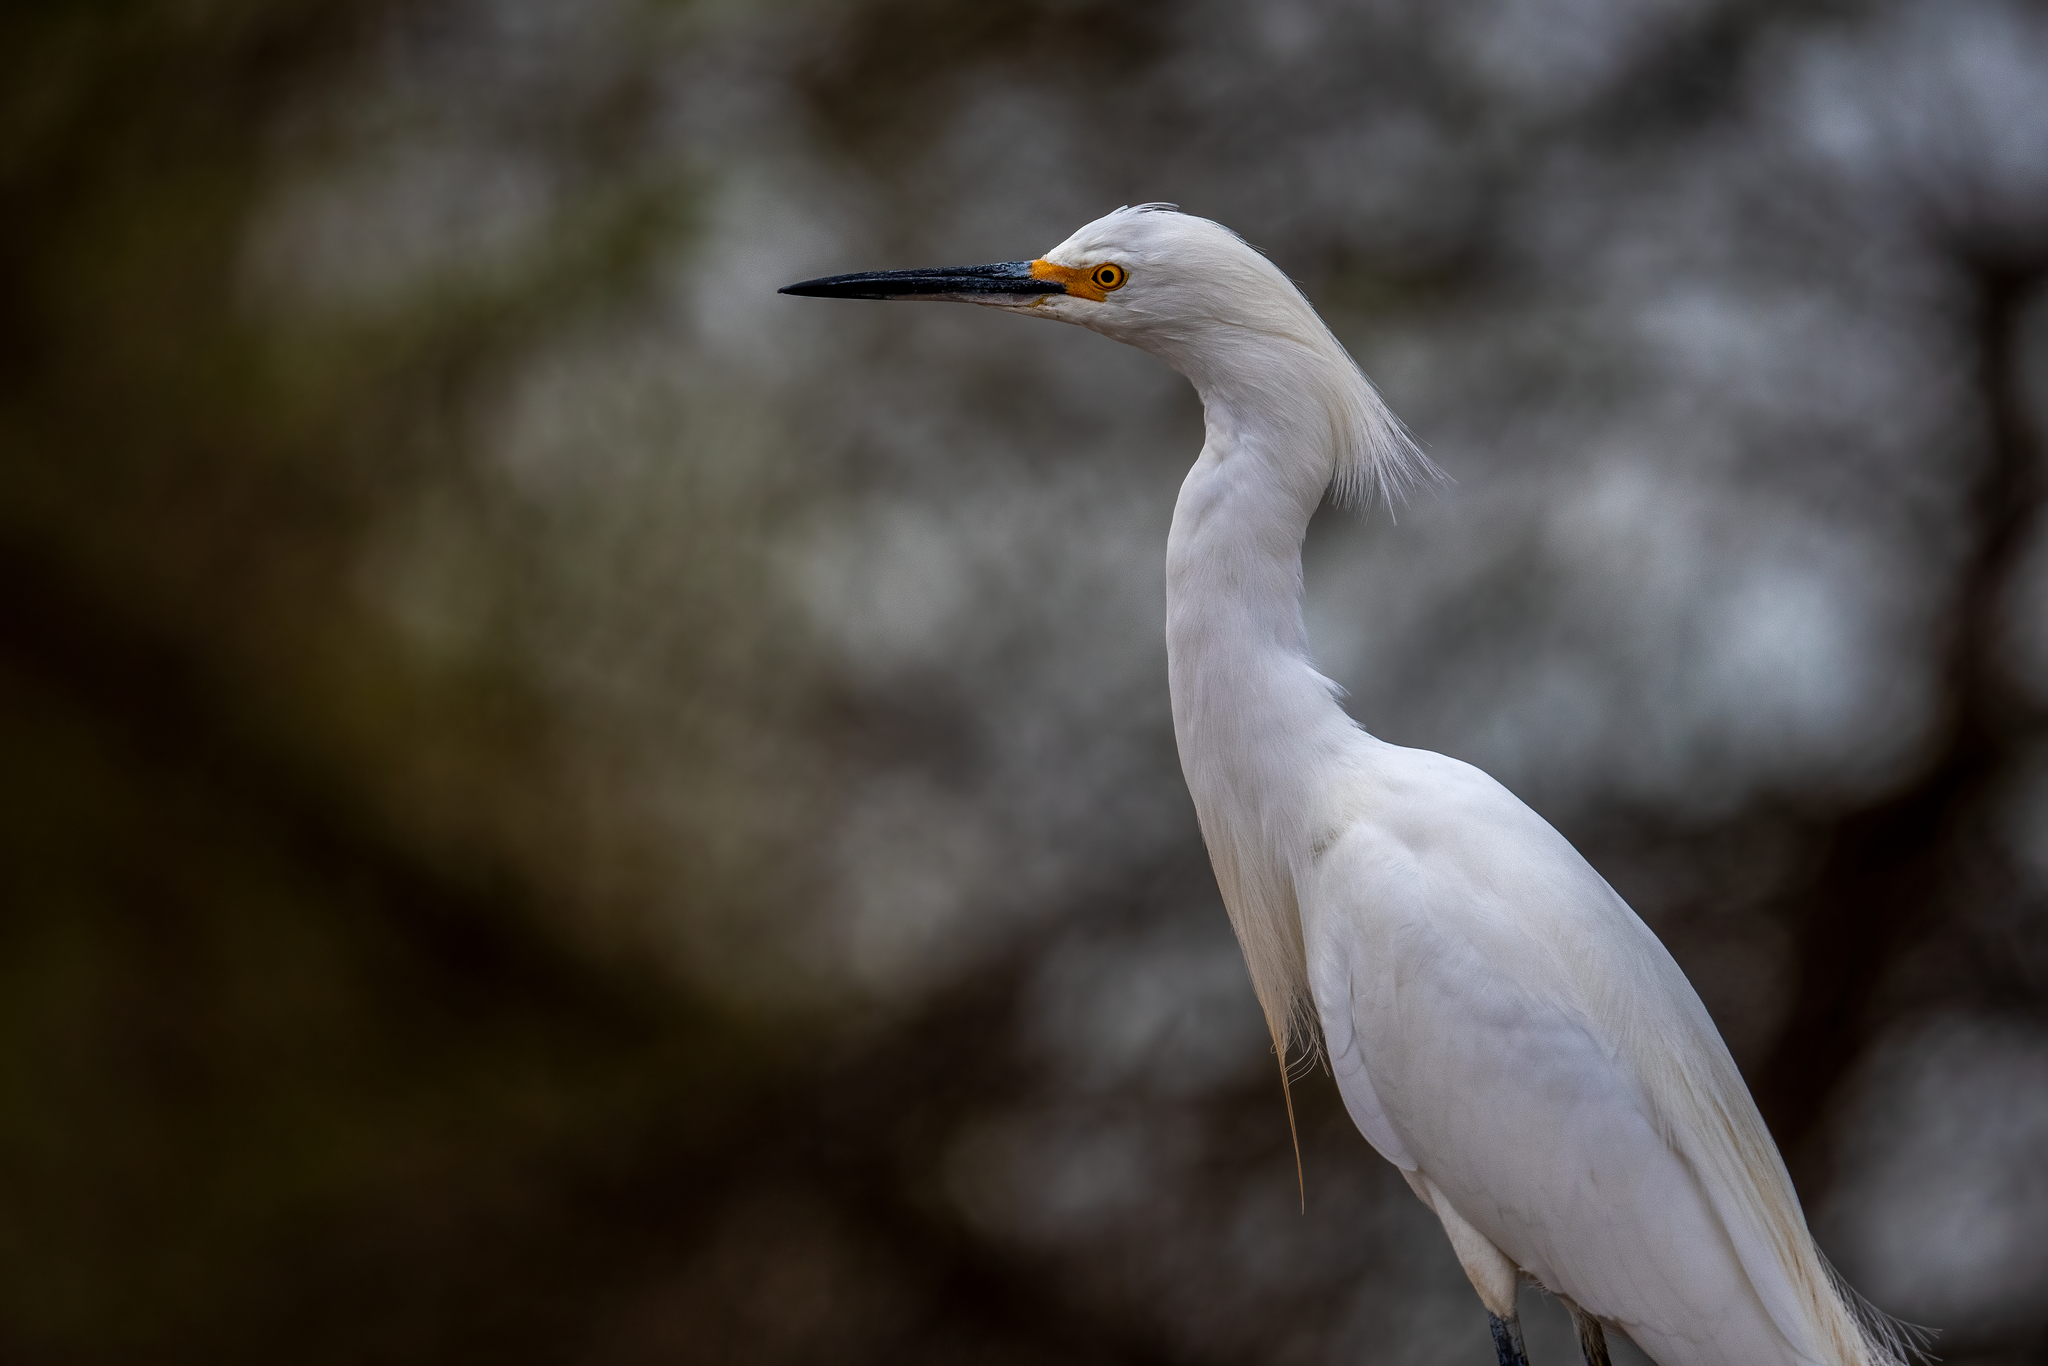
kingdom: Animalia
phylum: Chordata
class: Aves
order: Pelecaniformes
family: Ardeidae
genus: Egretta
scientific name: Egretta thula
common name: Snowy egret
